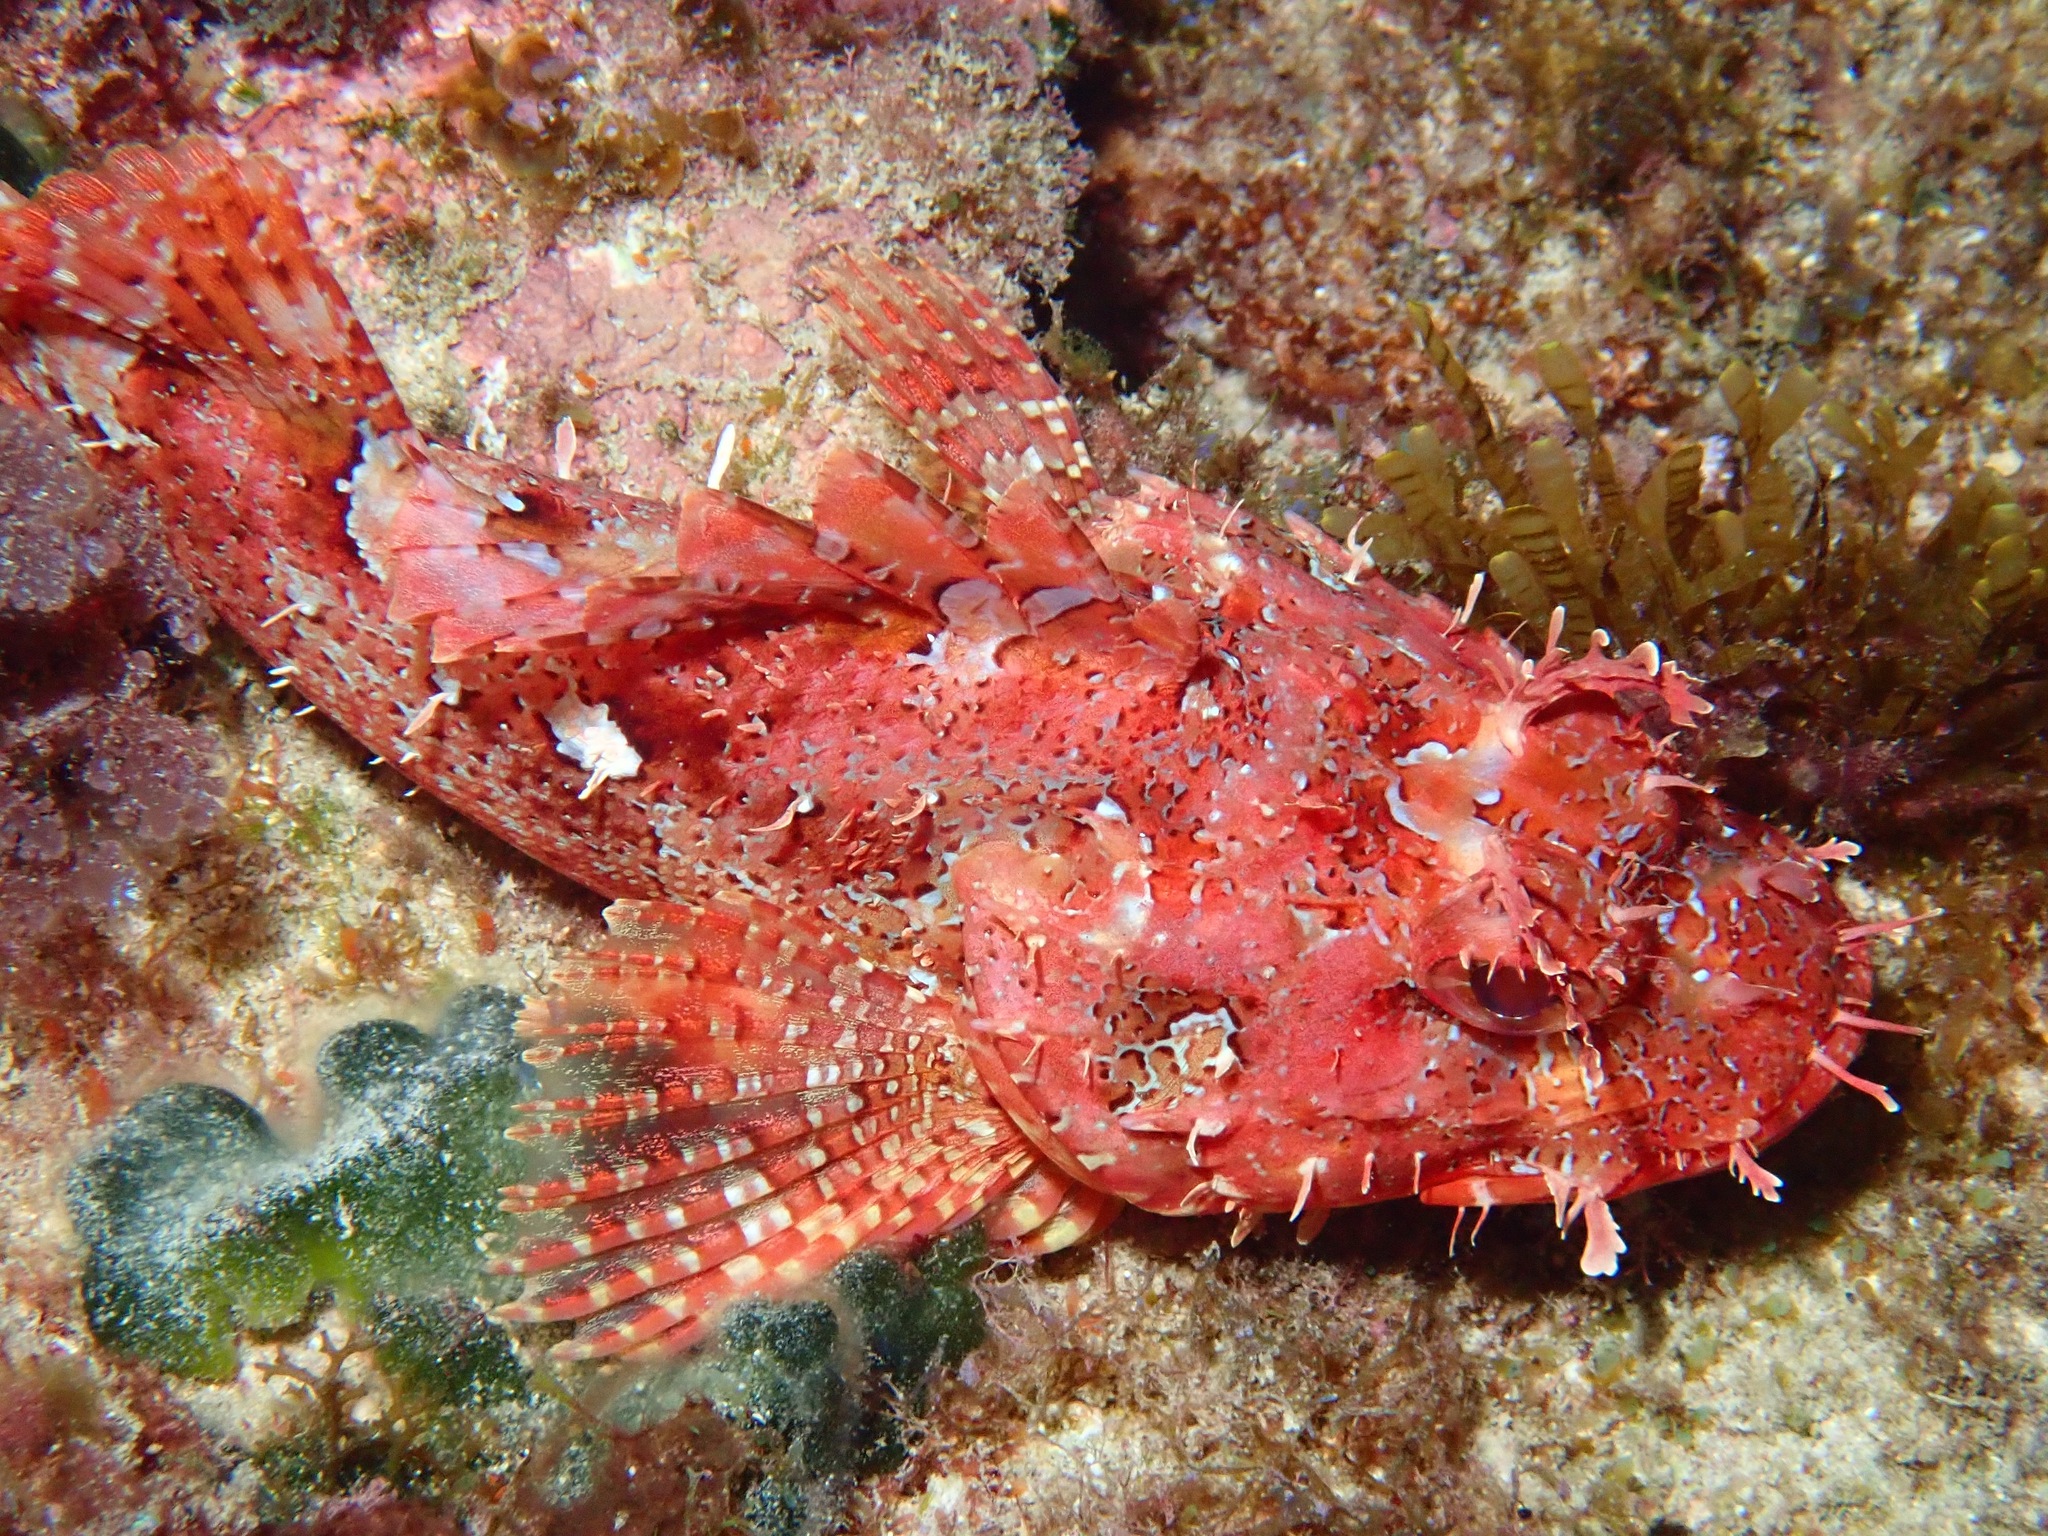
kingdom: Animalia
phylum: Chordata
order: Scorpaeniformes
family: Scorpaenidae
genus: Scorpaena
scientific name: Scorpaena cardinalis
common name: Cardinal scorpionfish
